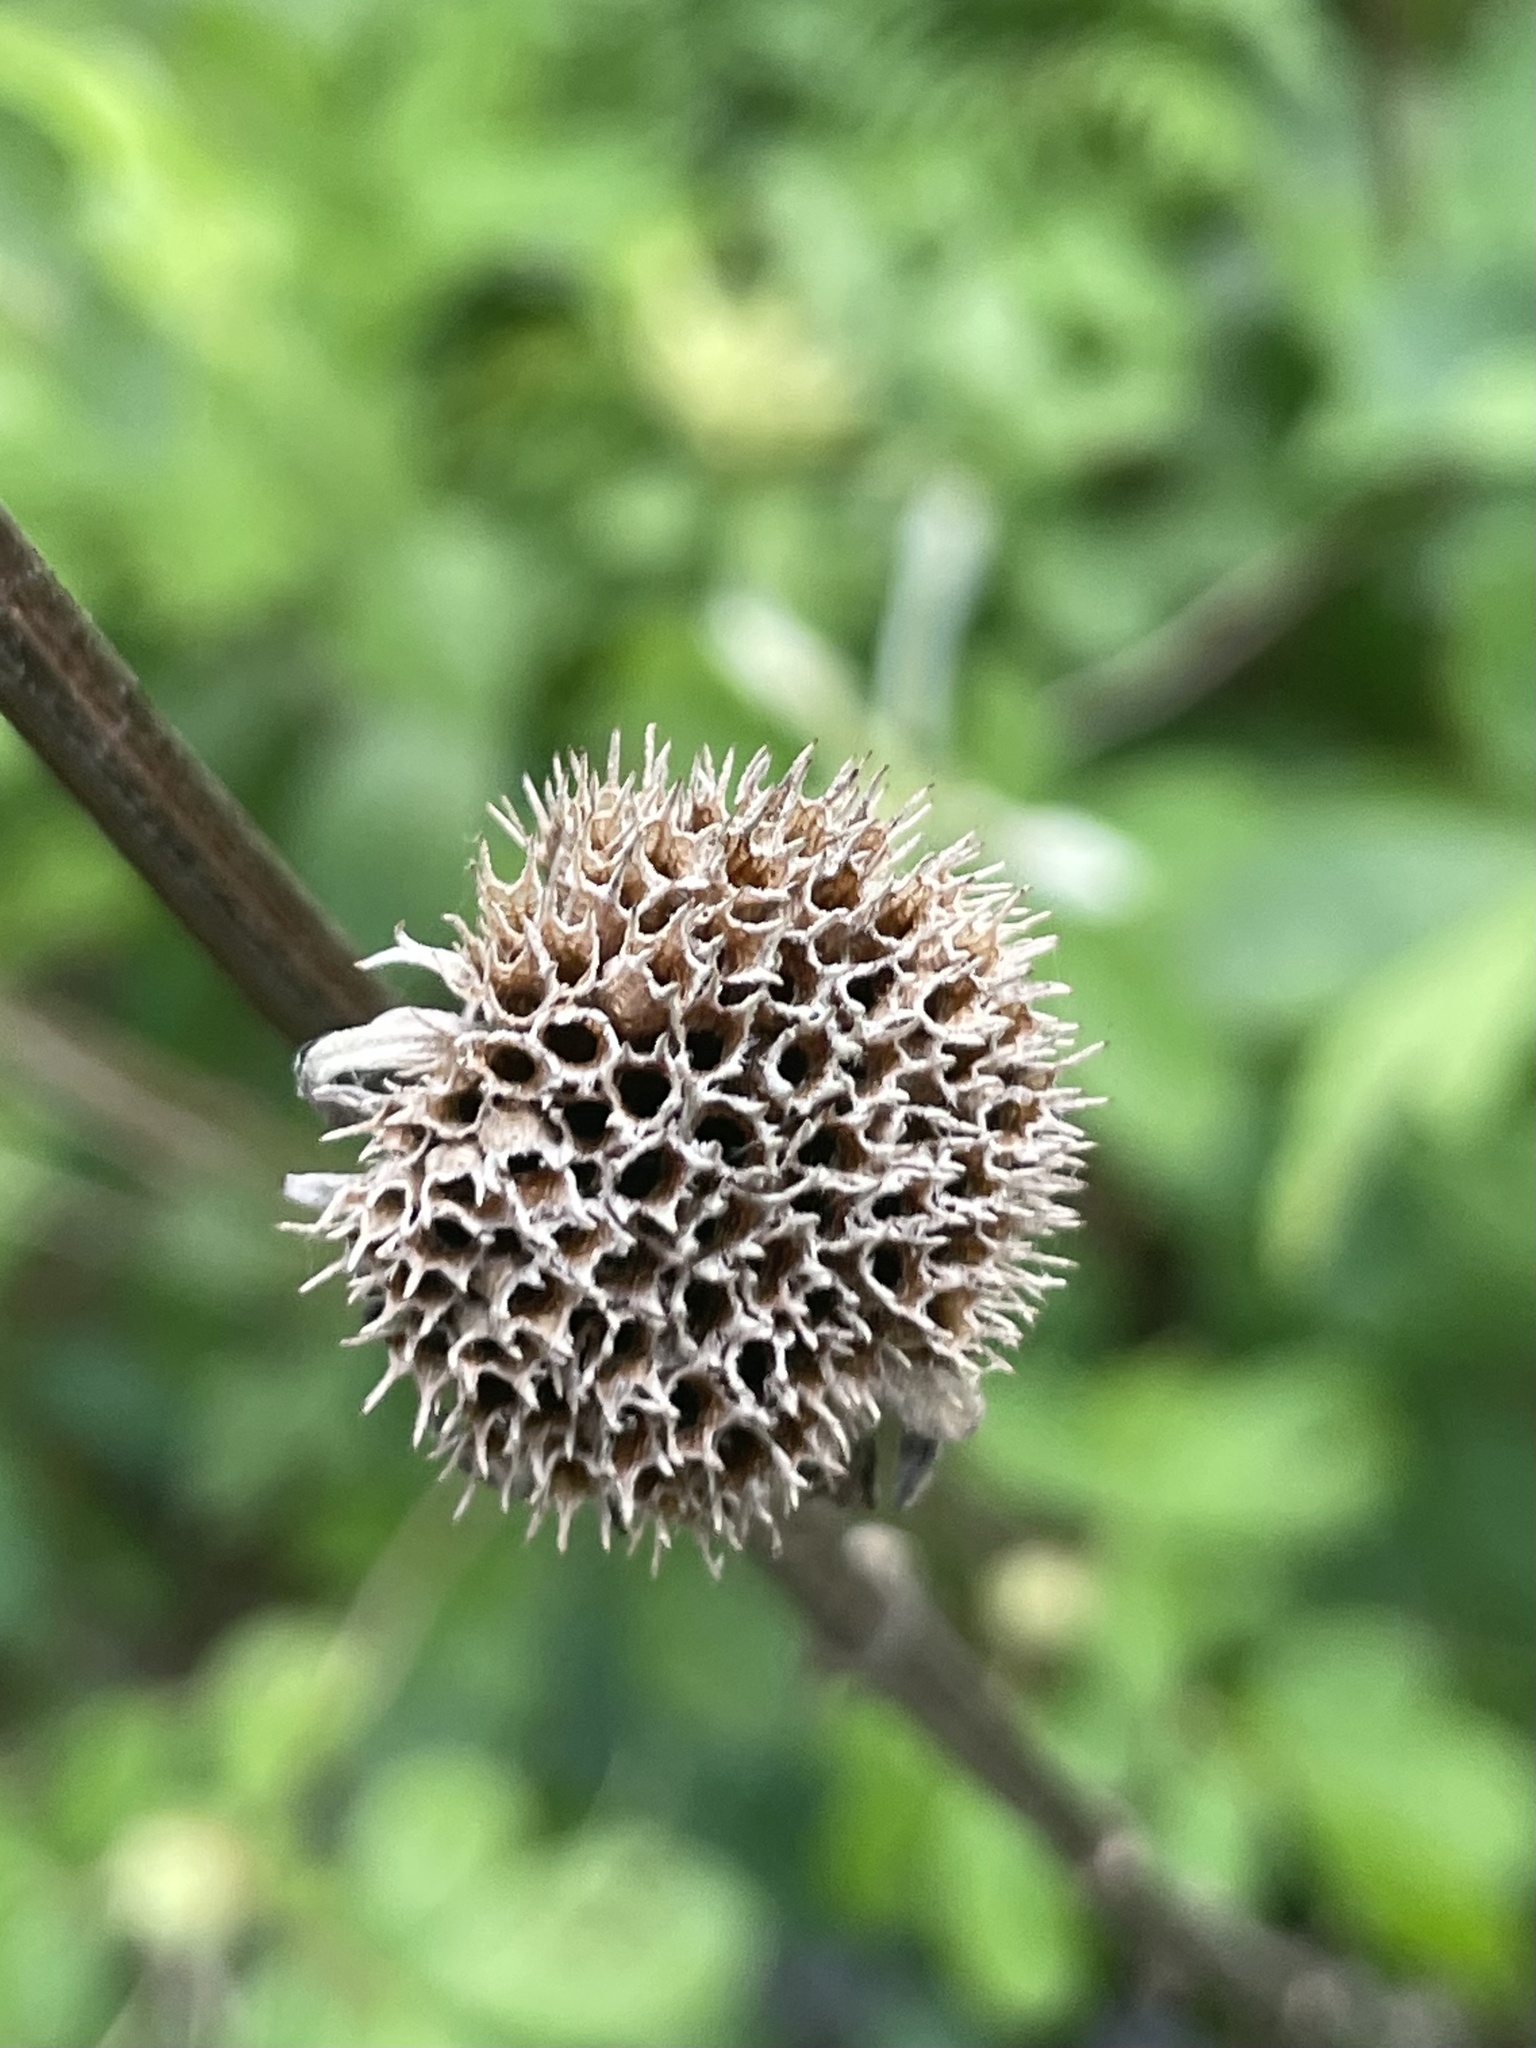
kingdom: Plantae
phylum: Tracheophyta
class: Magnoliopsida
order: Lamiales
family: Lamiaceae
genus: Hyptis
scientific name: Hyptis alata
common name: Cluster bush-mint
